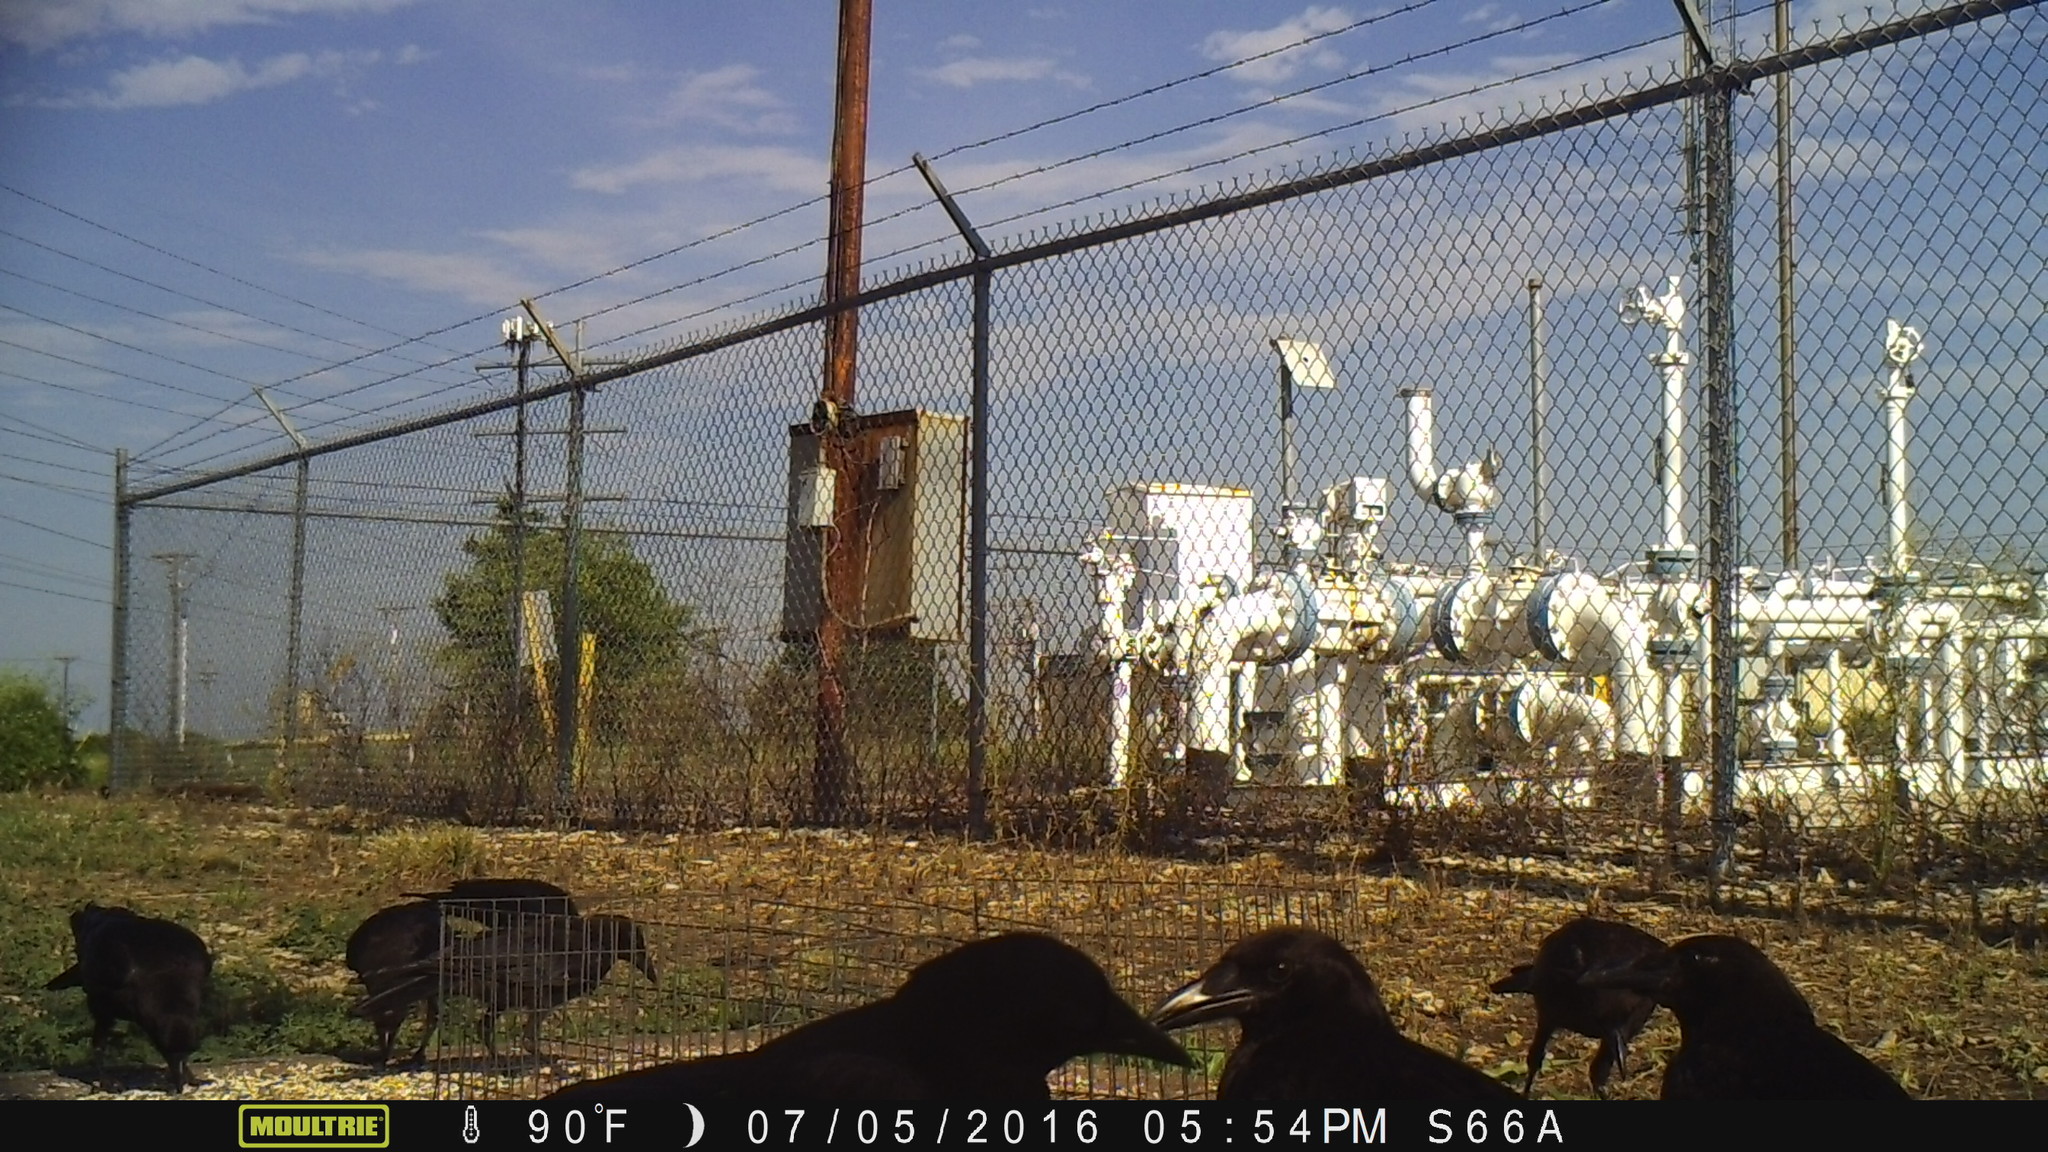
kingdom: Animalia
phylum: Chordata
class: Aves
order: Passeriformes
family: Corvidae
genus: Corvus
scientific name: Corvus brachyrhynchos
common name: American crow
